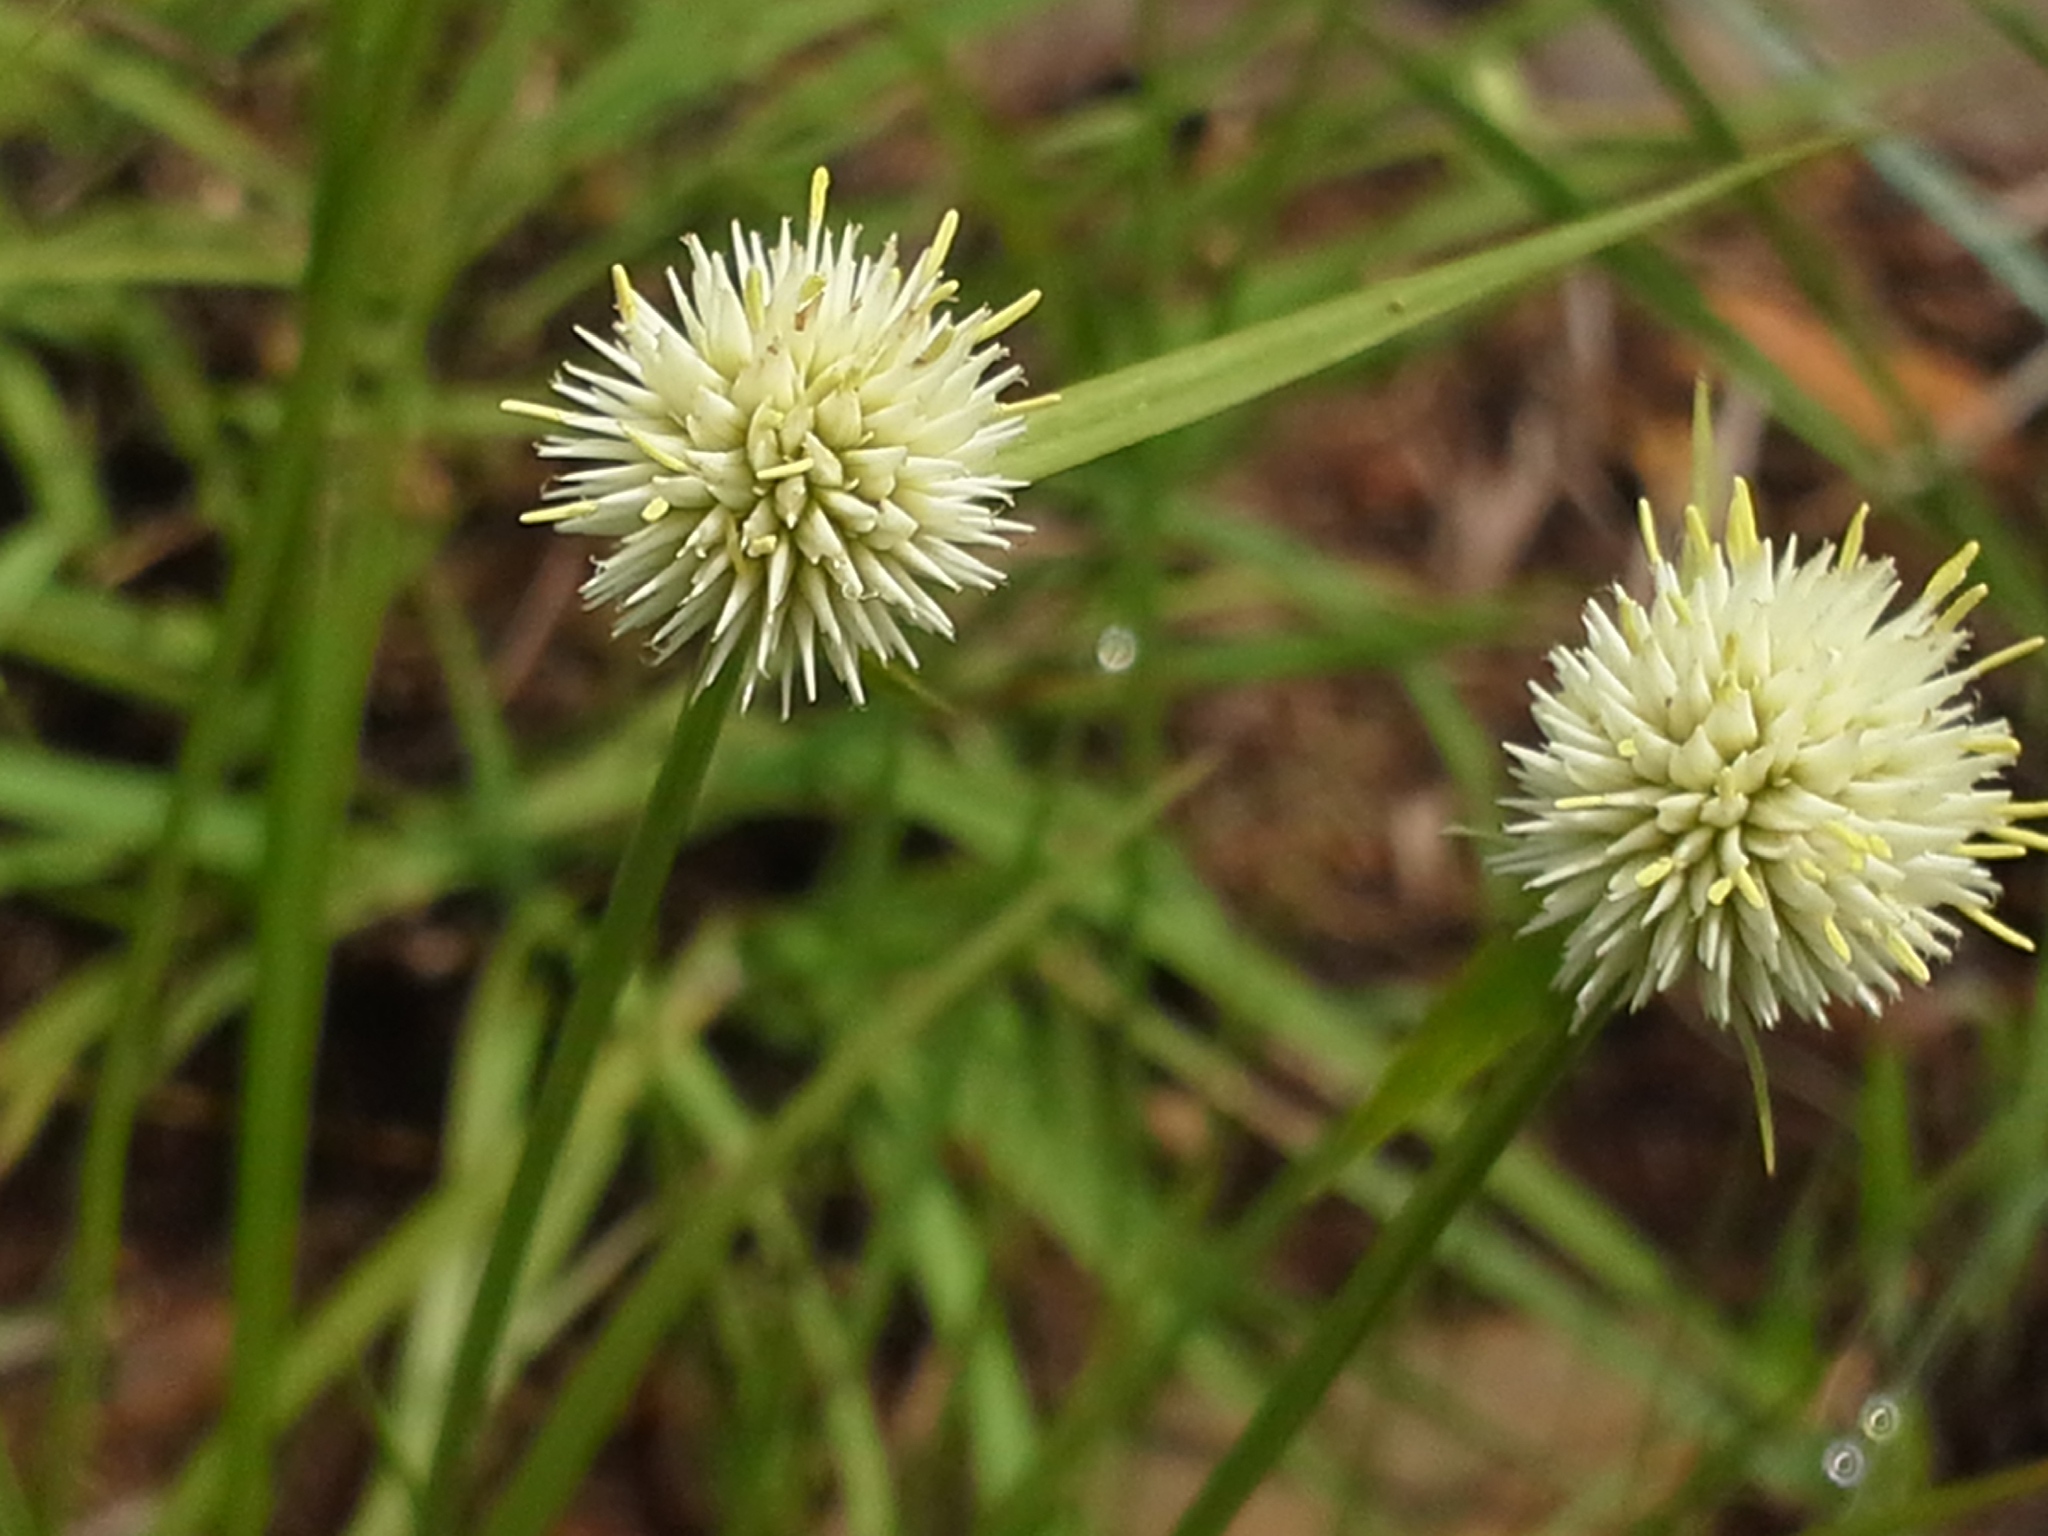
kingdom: Plantae
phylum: Tracheophyta
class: Liliopsida
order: Poales
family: Cyperaceae
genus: Cyperus
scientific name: Cyperus alatus
